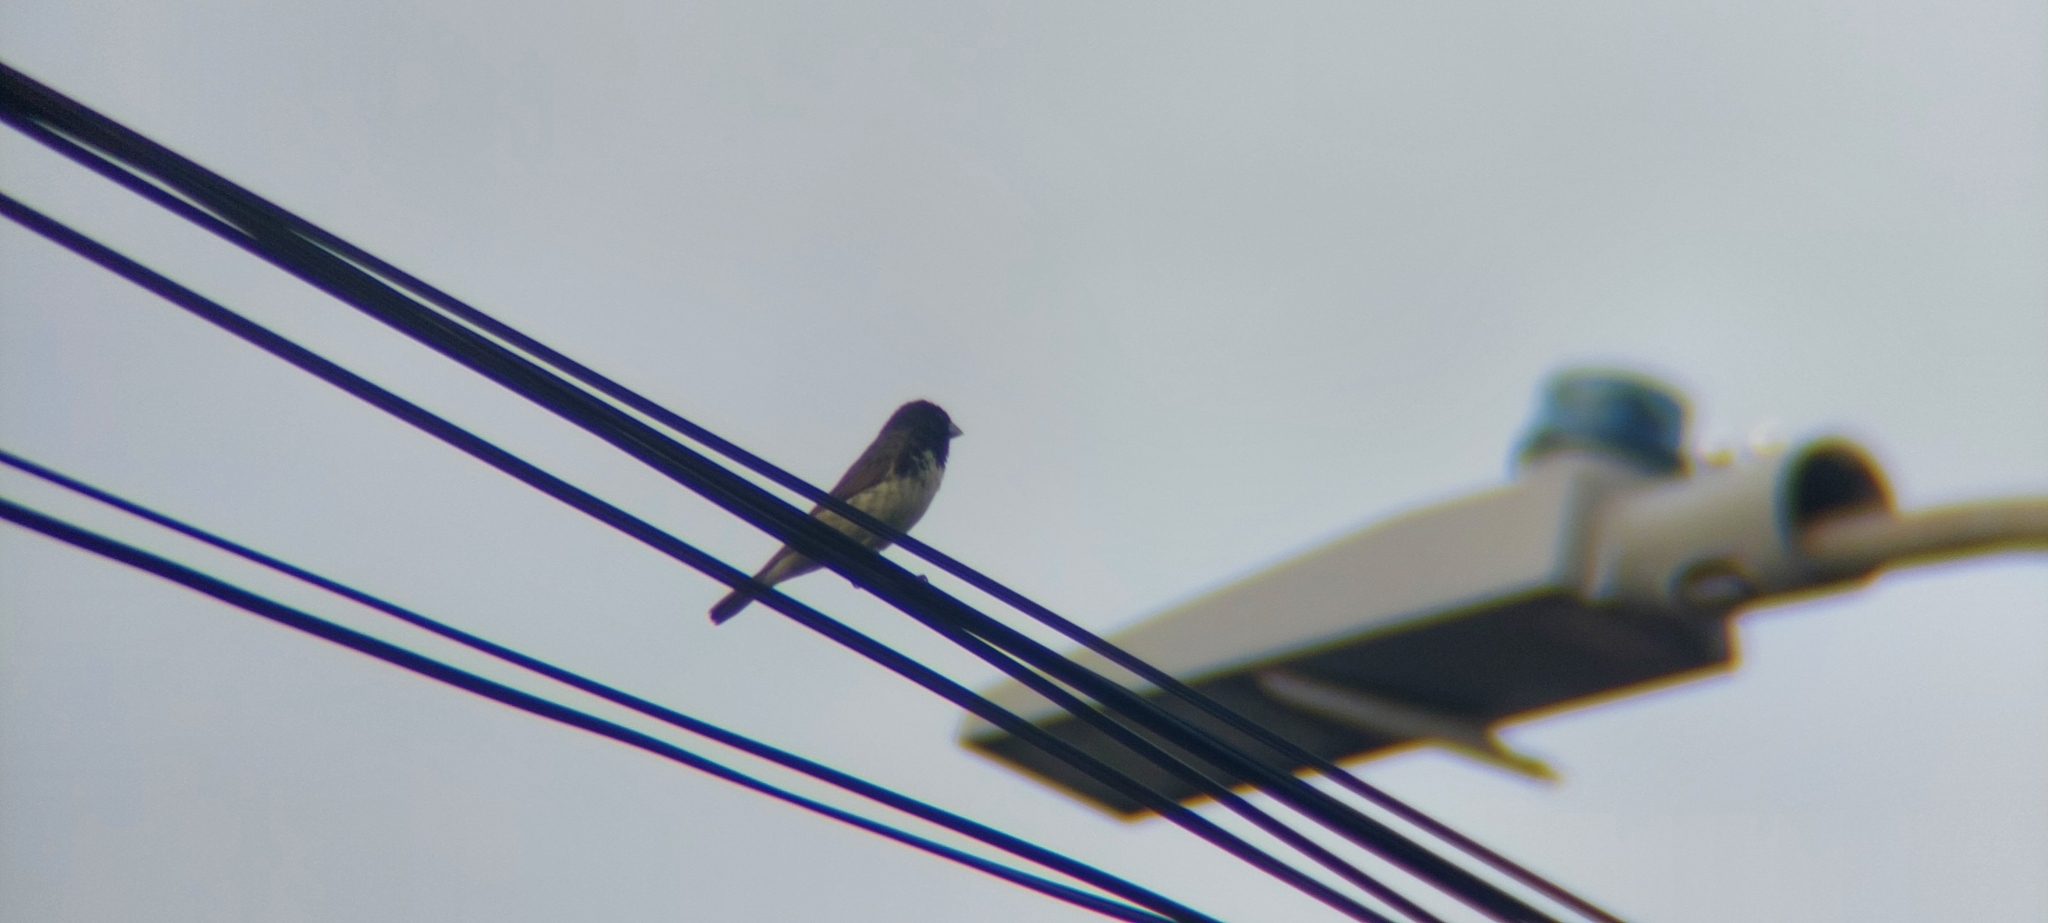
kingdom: Animalia
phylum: Chordata
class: Aves
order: Passeriformes
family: Thraupidae
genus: Sporophila
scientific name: Sporophila ardesiaca
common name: Dubois's seedeater
